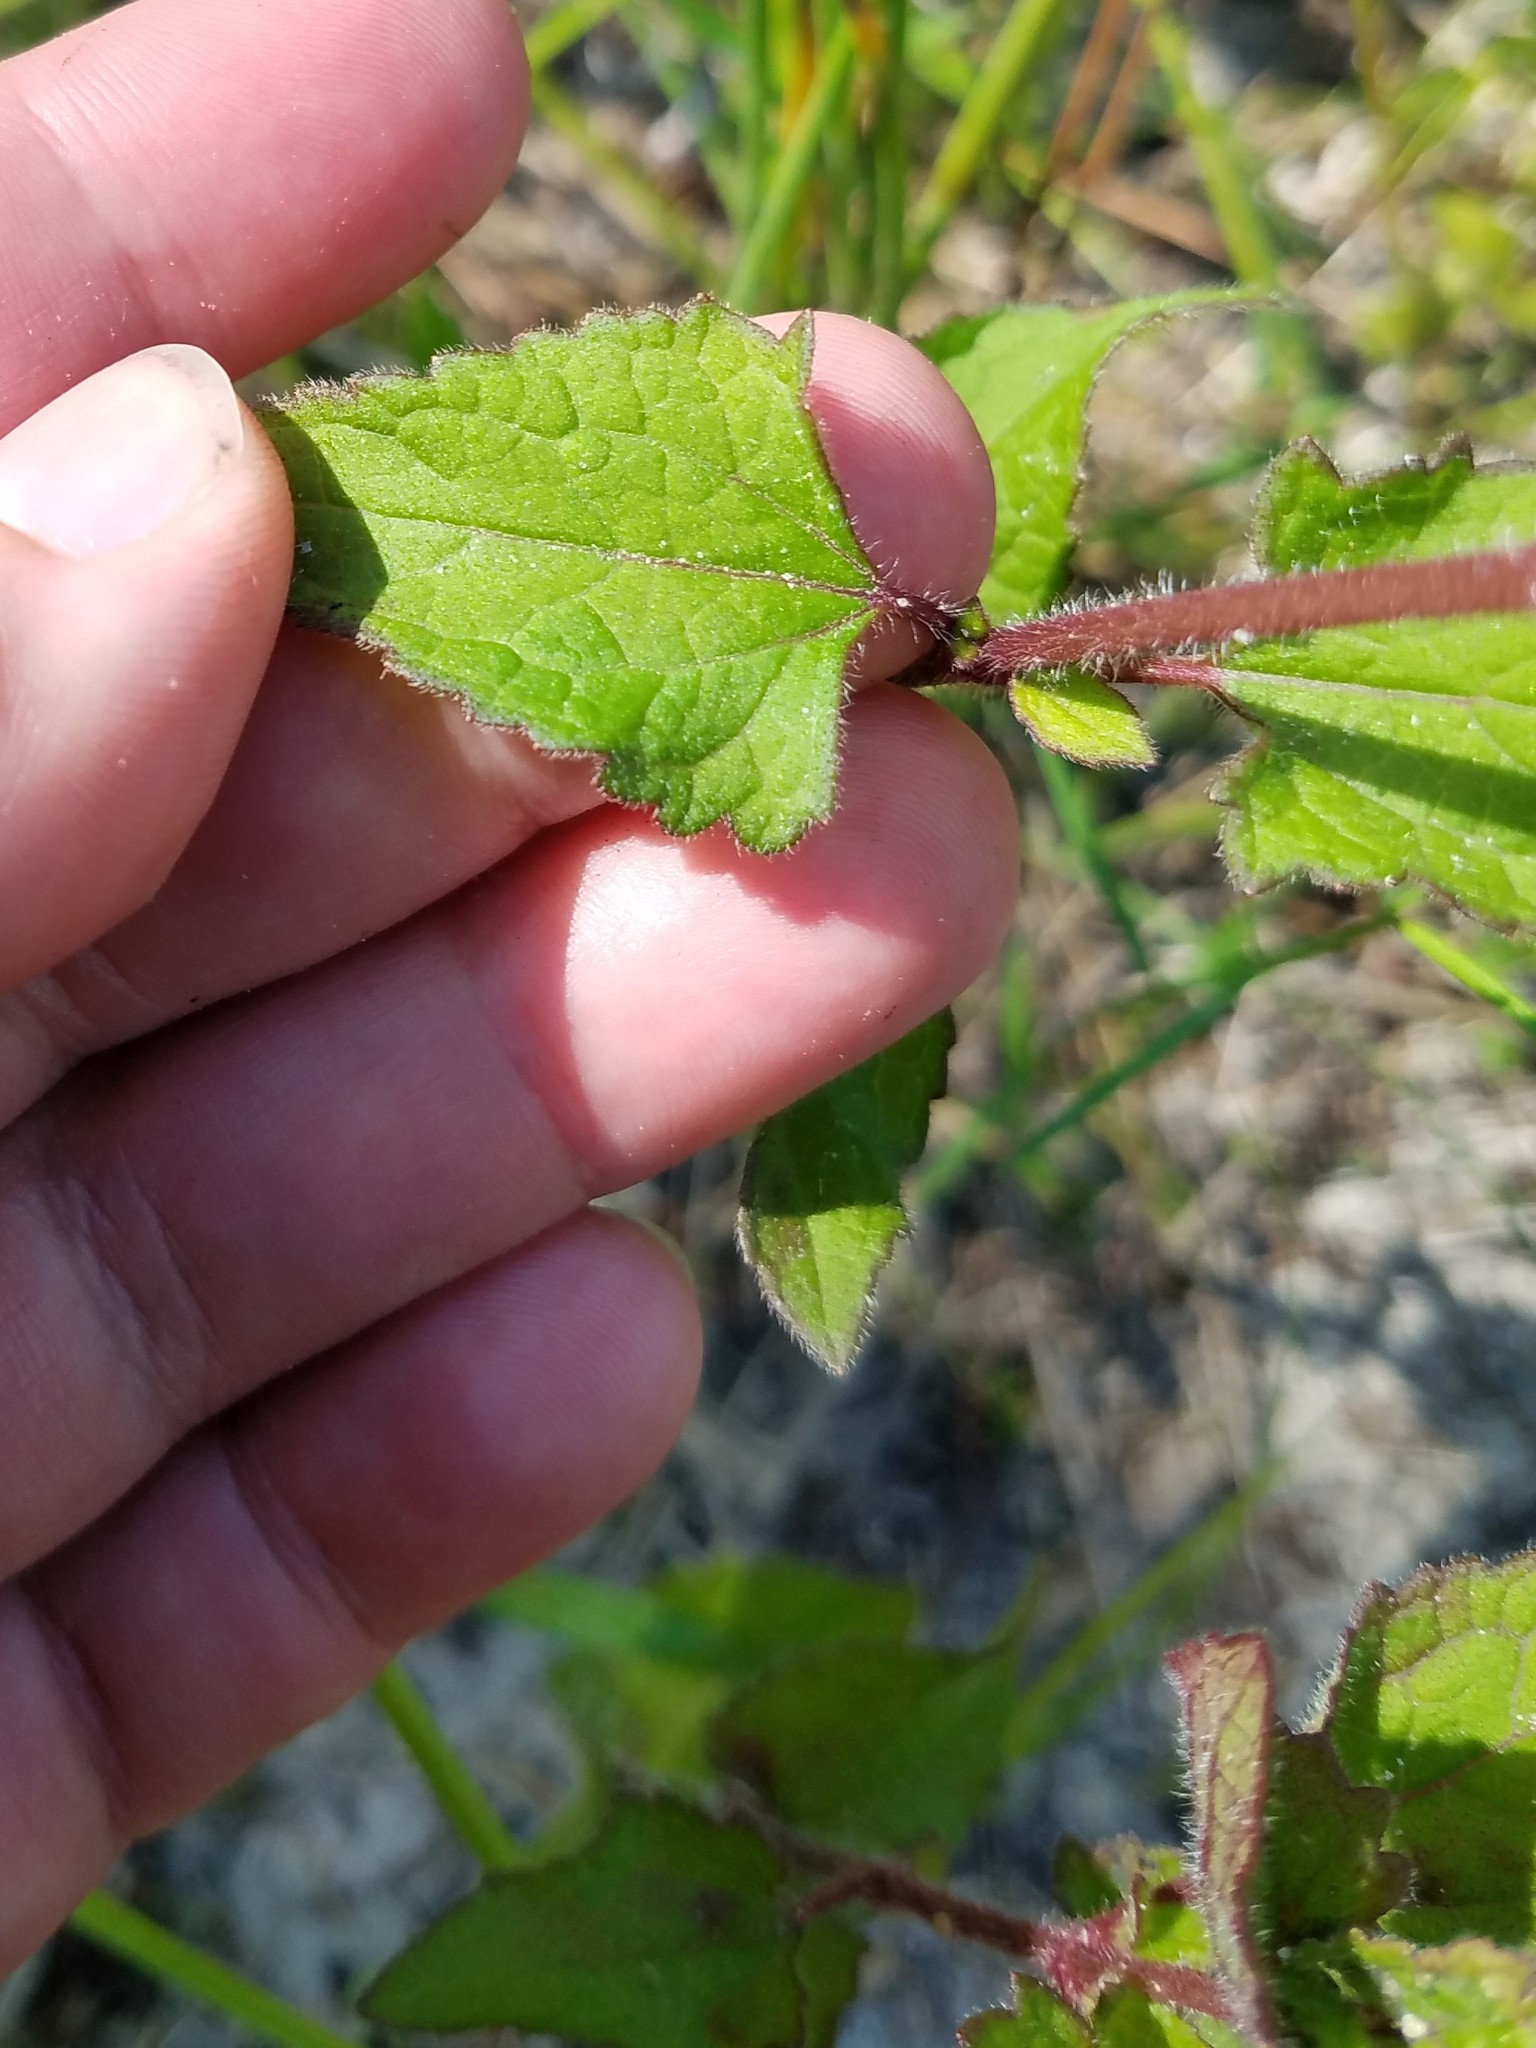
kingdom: Plantae
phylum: Tracheophyta
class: Magnoliopsida
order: Asterales
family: Asteraceae
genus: Conoclinium
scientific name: Conoclinium coelestinum
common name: Blue mistflower
